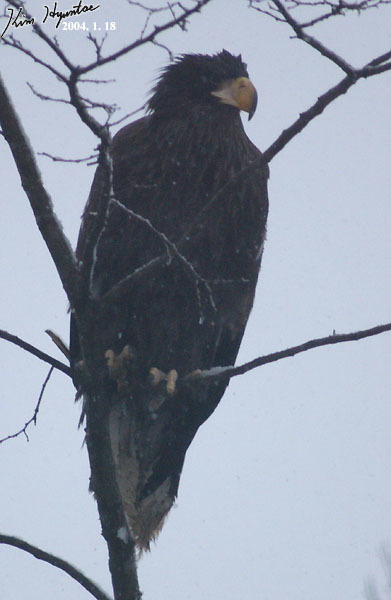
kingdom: Animalia
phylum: Chordata
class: Aves
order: Accipitriformes
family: Accipitridae
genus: Haliaeetus
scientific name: Haliaeetus pelagicus
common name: Steller's sea eagle
